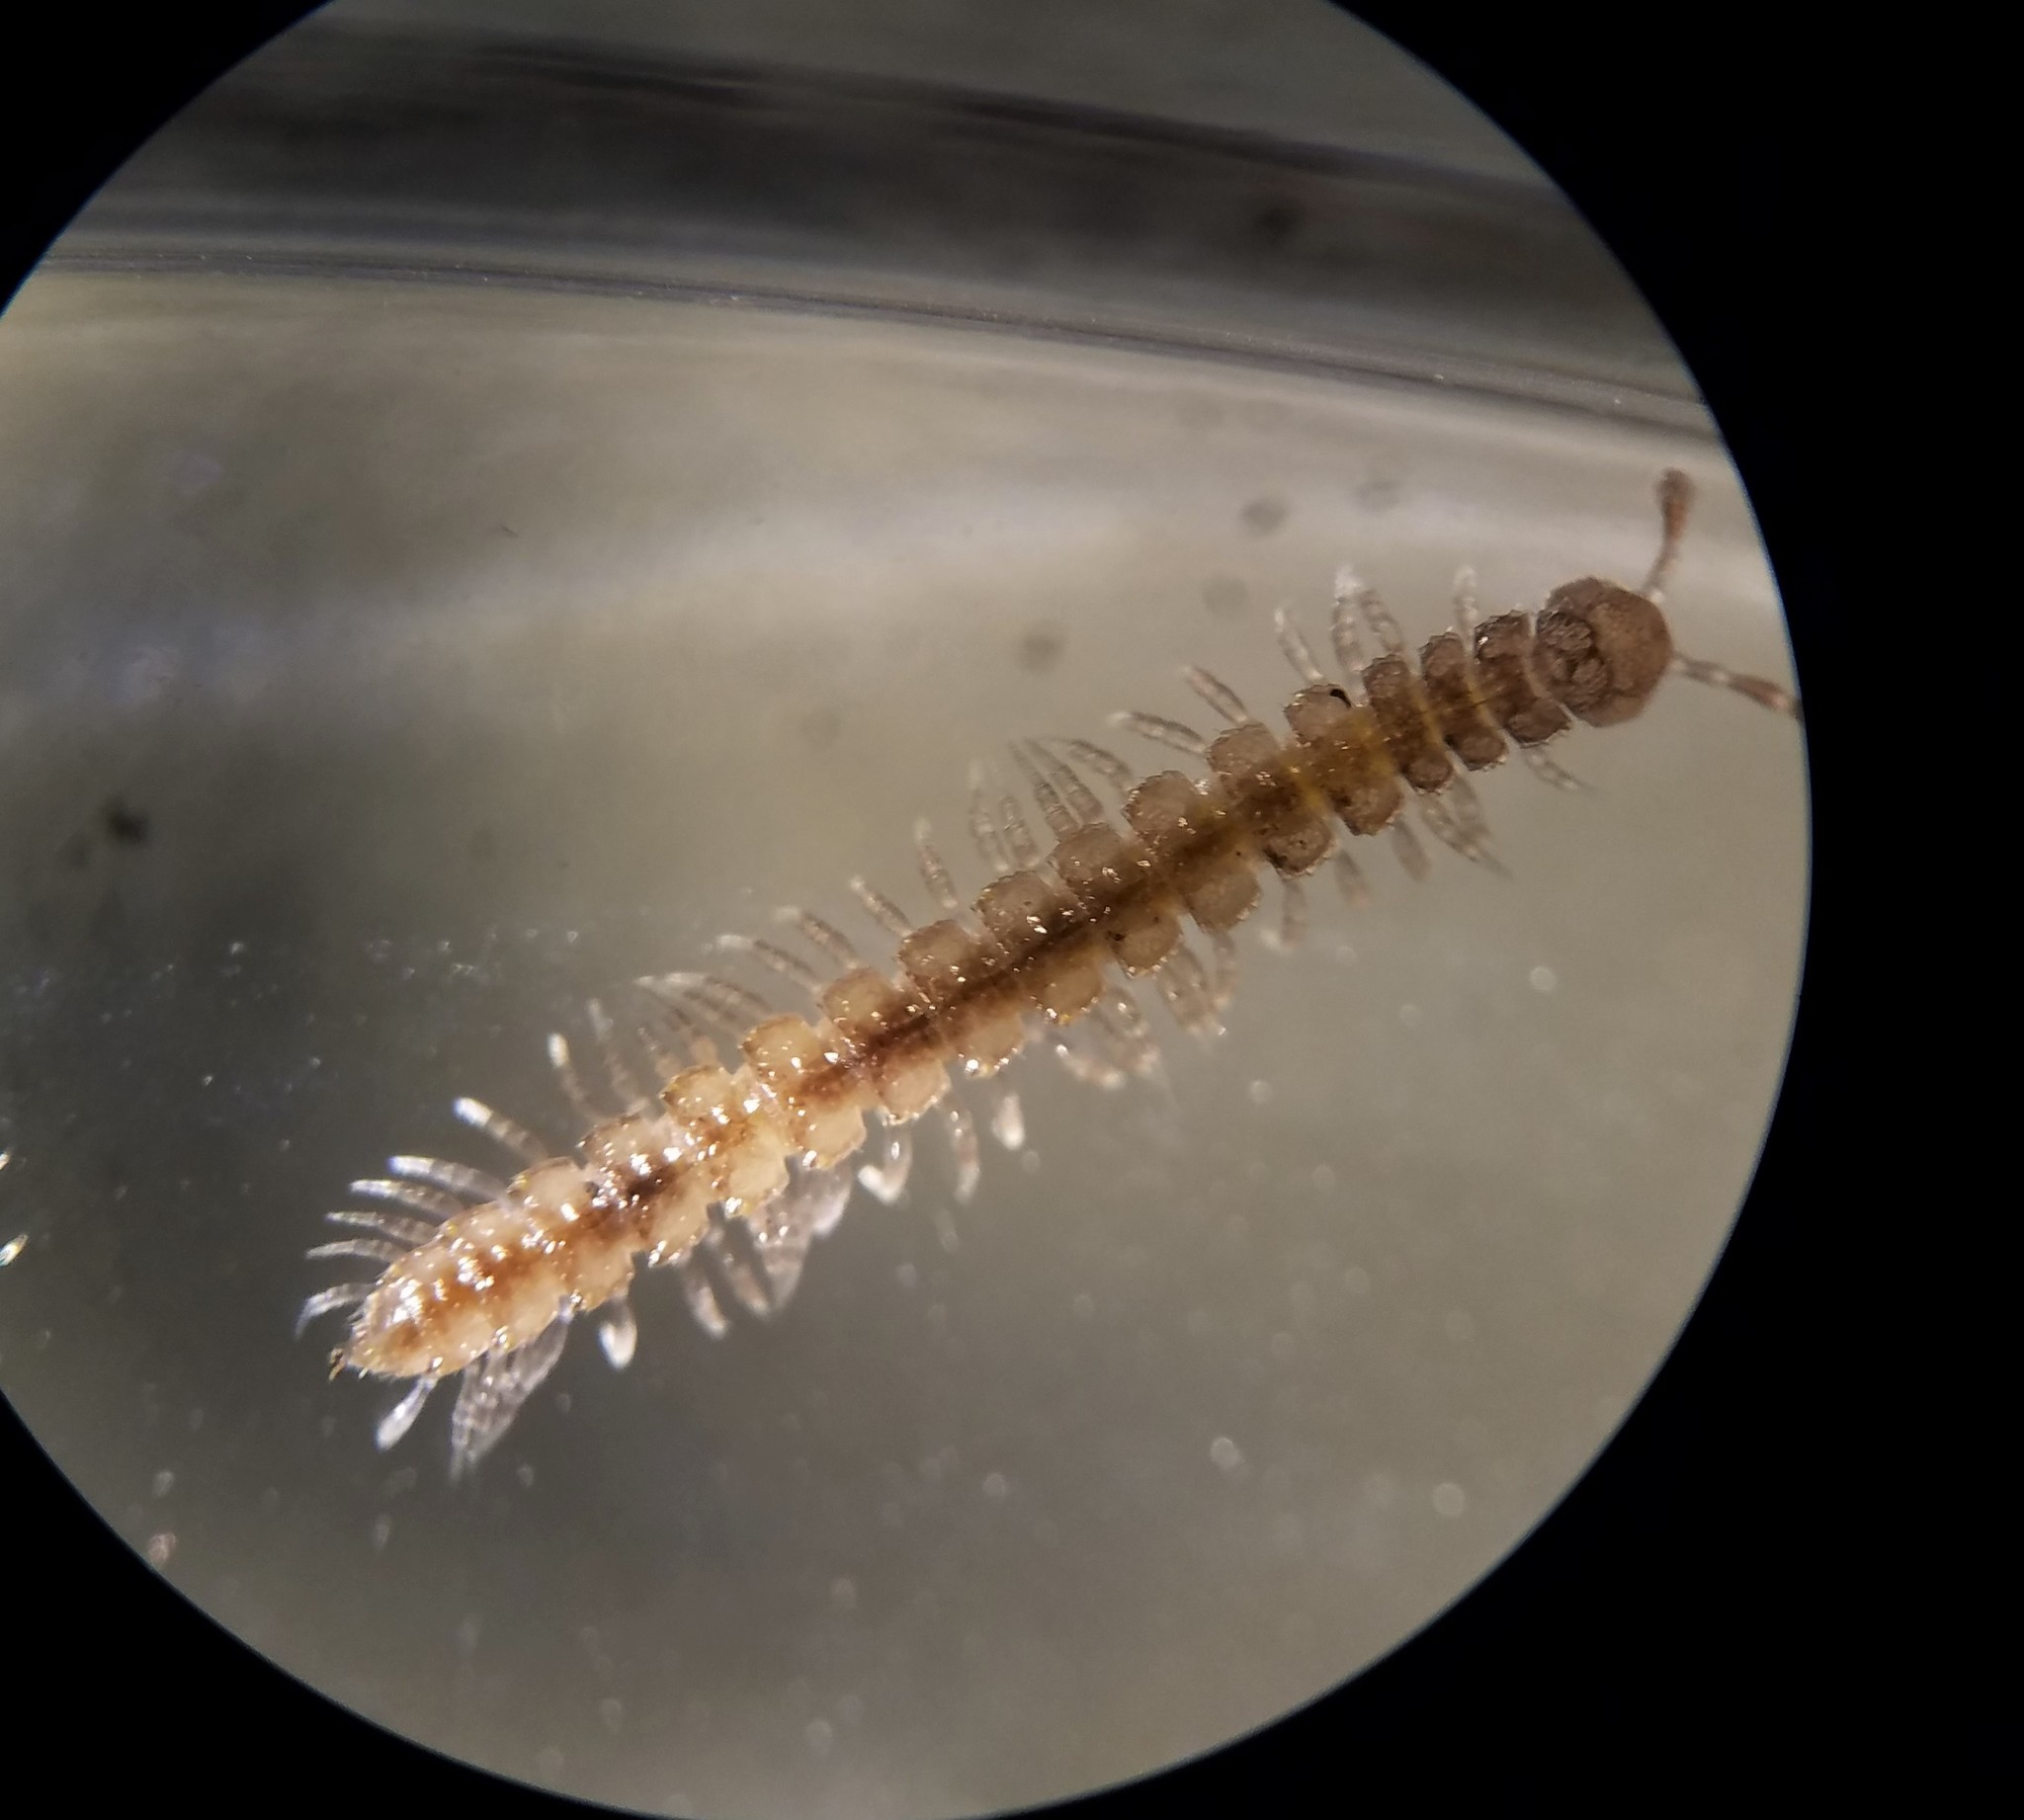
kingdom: Animalia
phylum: Arthropoda
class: Diplopoda
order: Polydesmida
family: Polydesmidae
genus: Brachydesmus
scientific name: Brachydesmus superus
